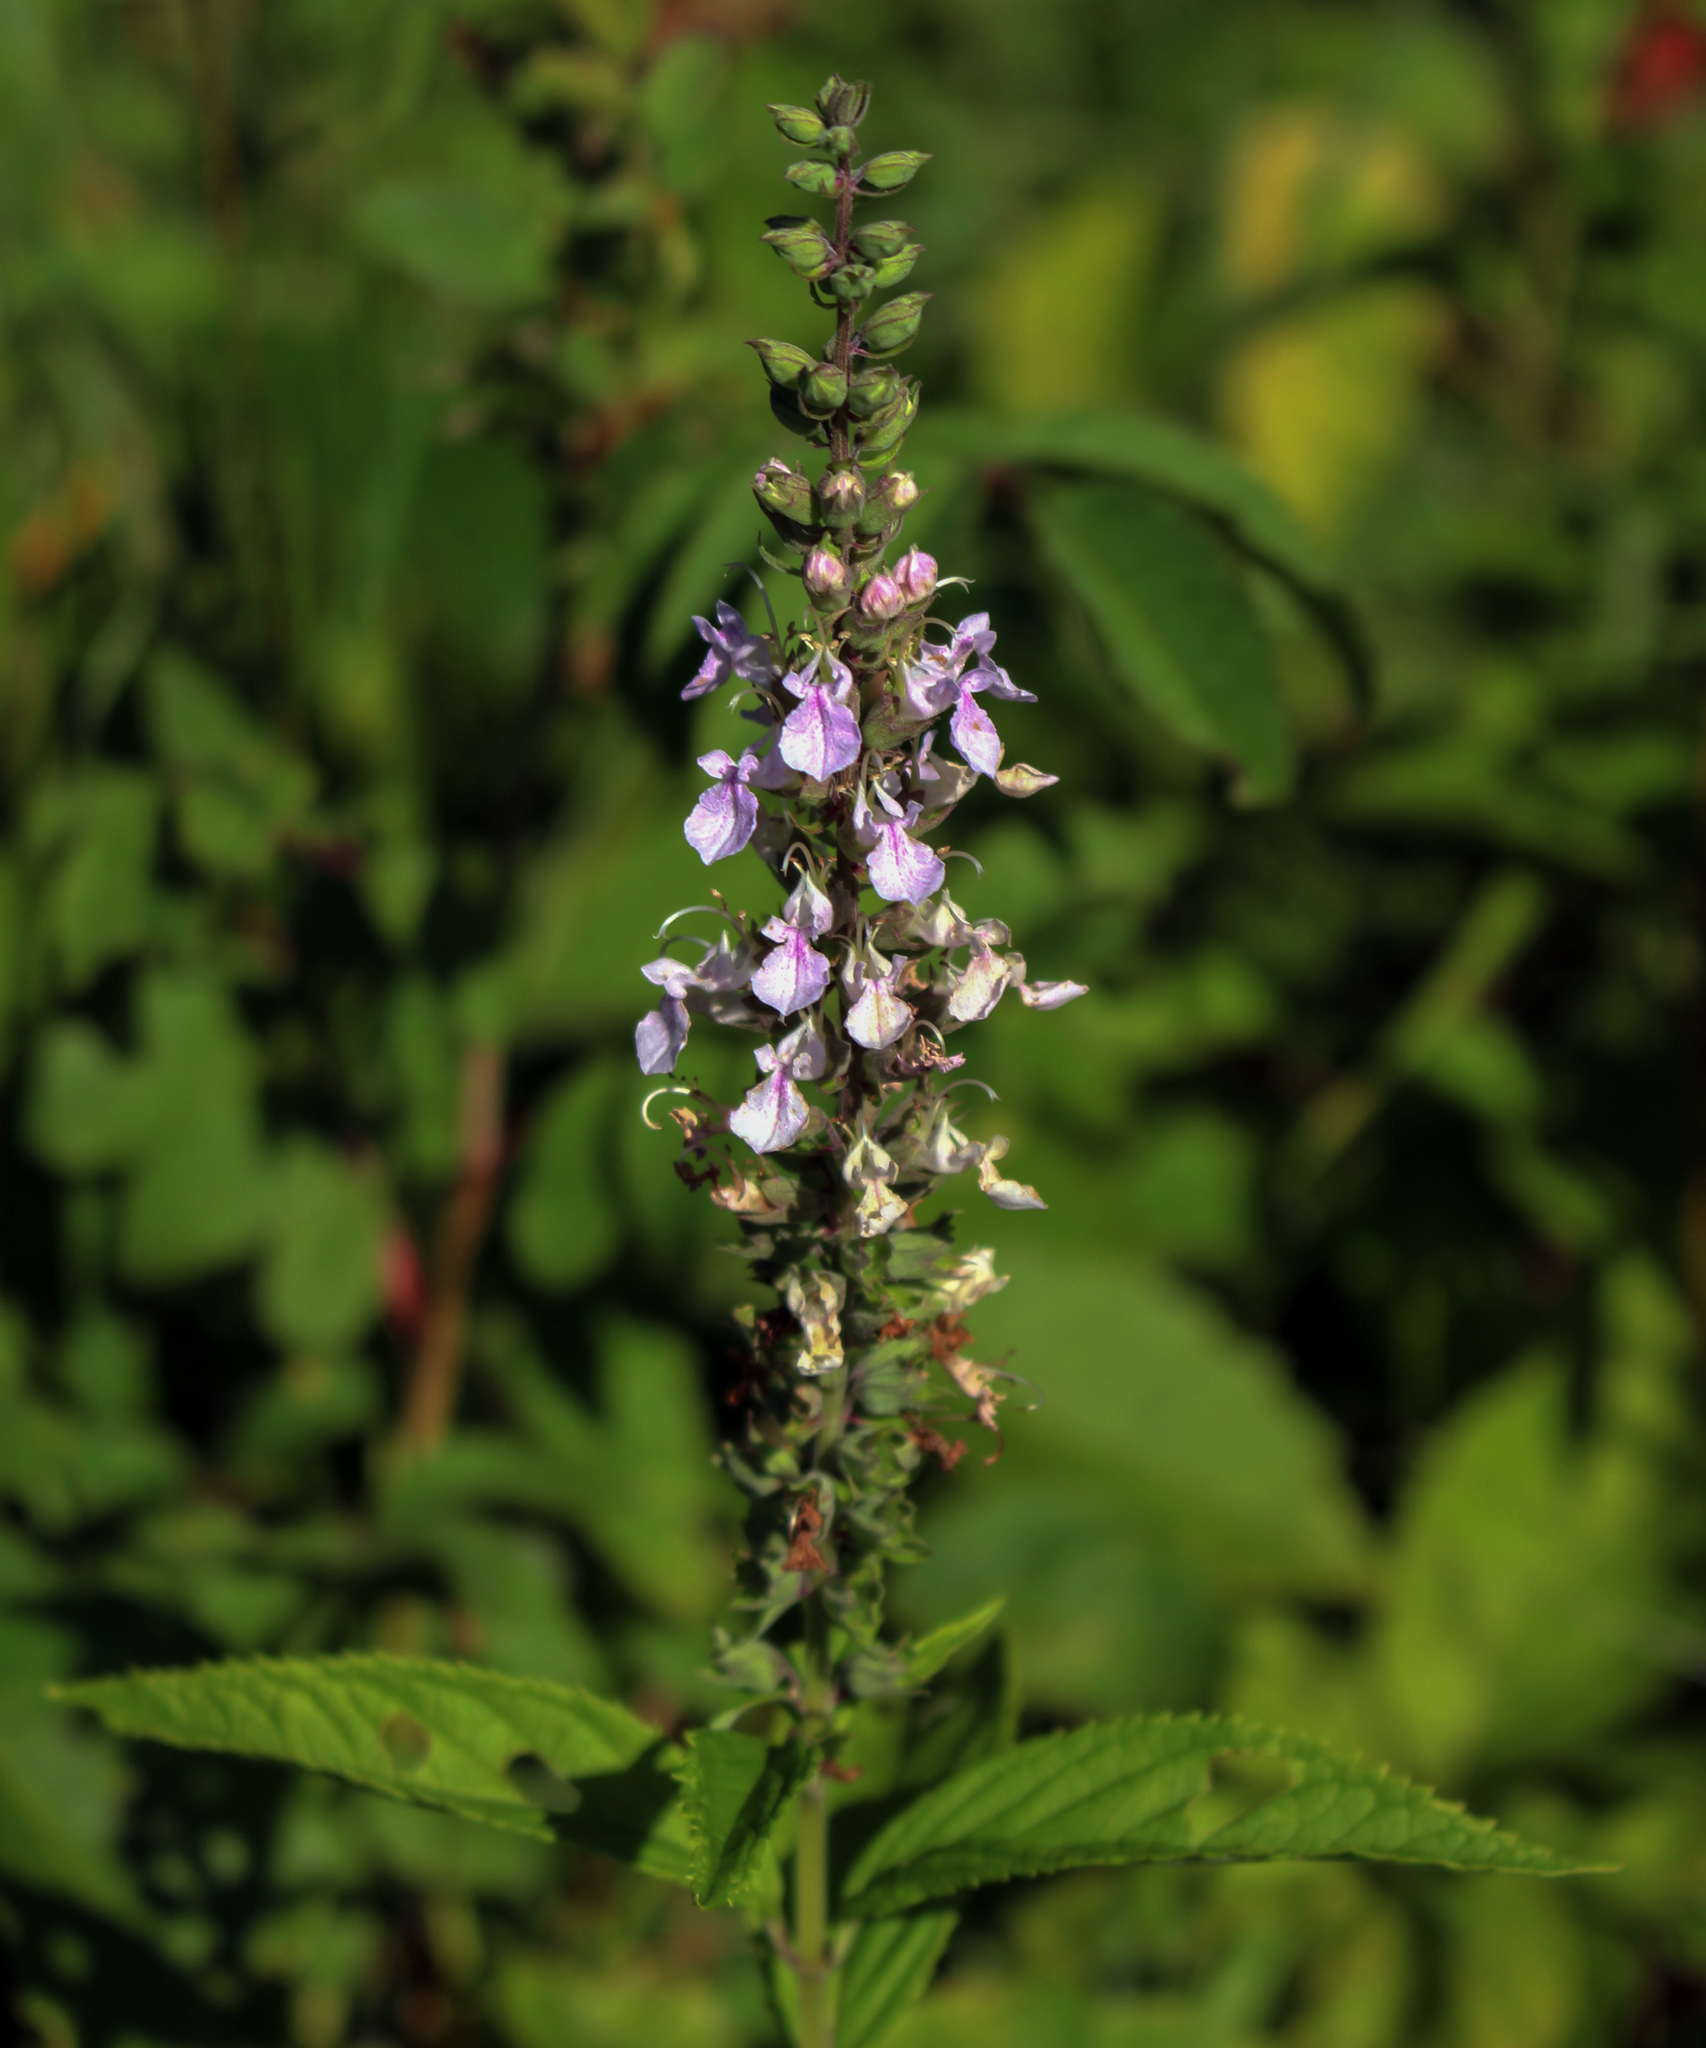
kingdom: Plantae
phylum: Tracheophyta
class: Magnoliopsida
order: Lamiales
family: Lamiaceae
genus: Teucrium
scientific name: Teucrium canadense
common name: American germander
